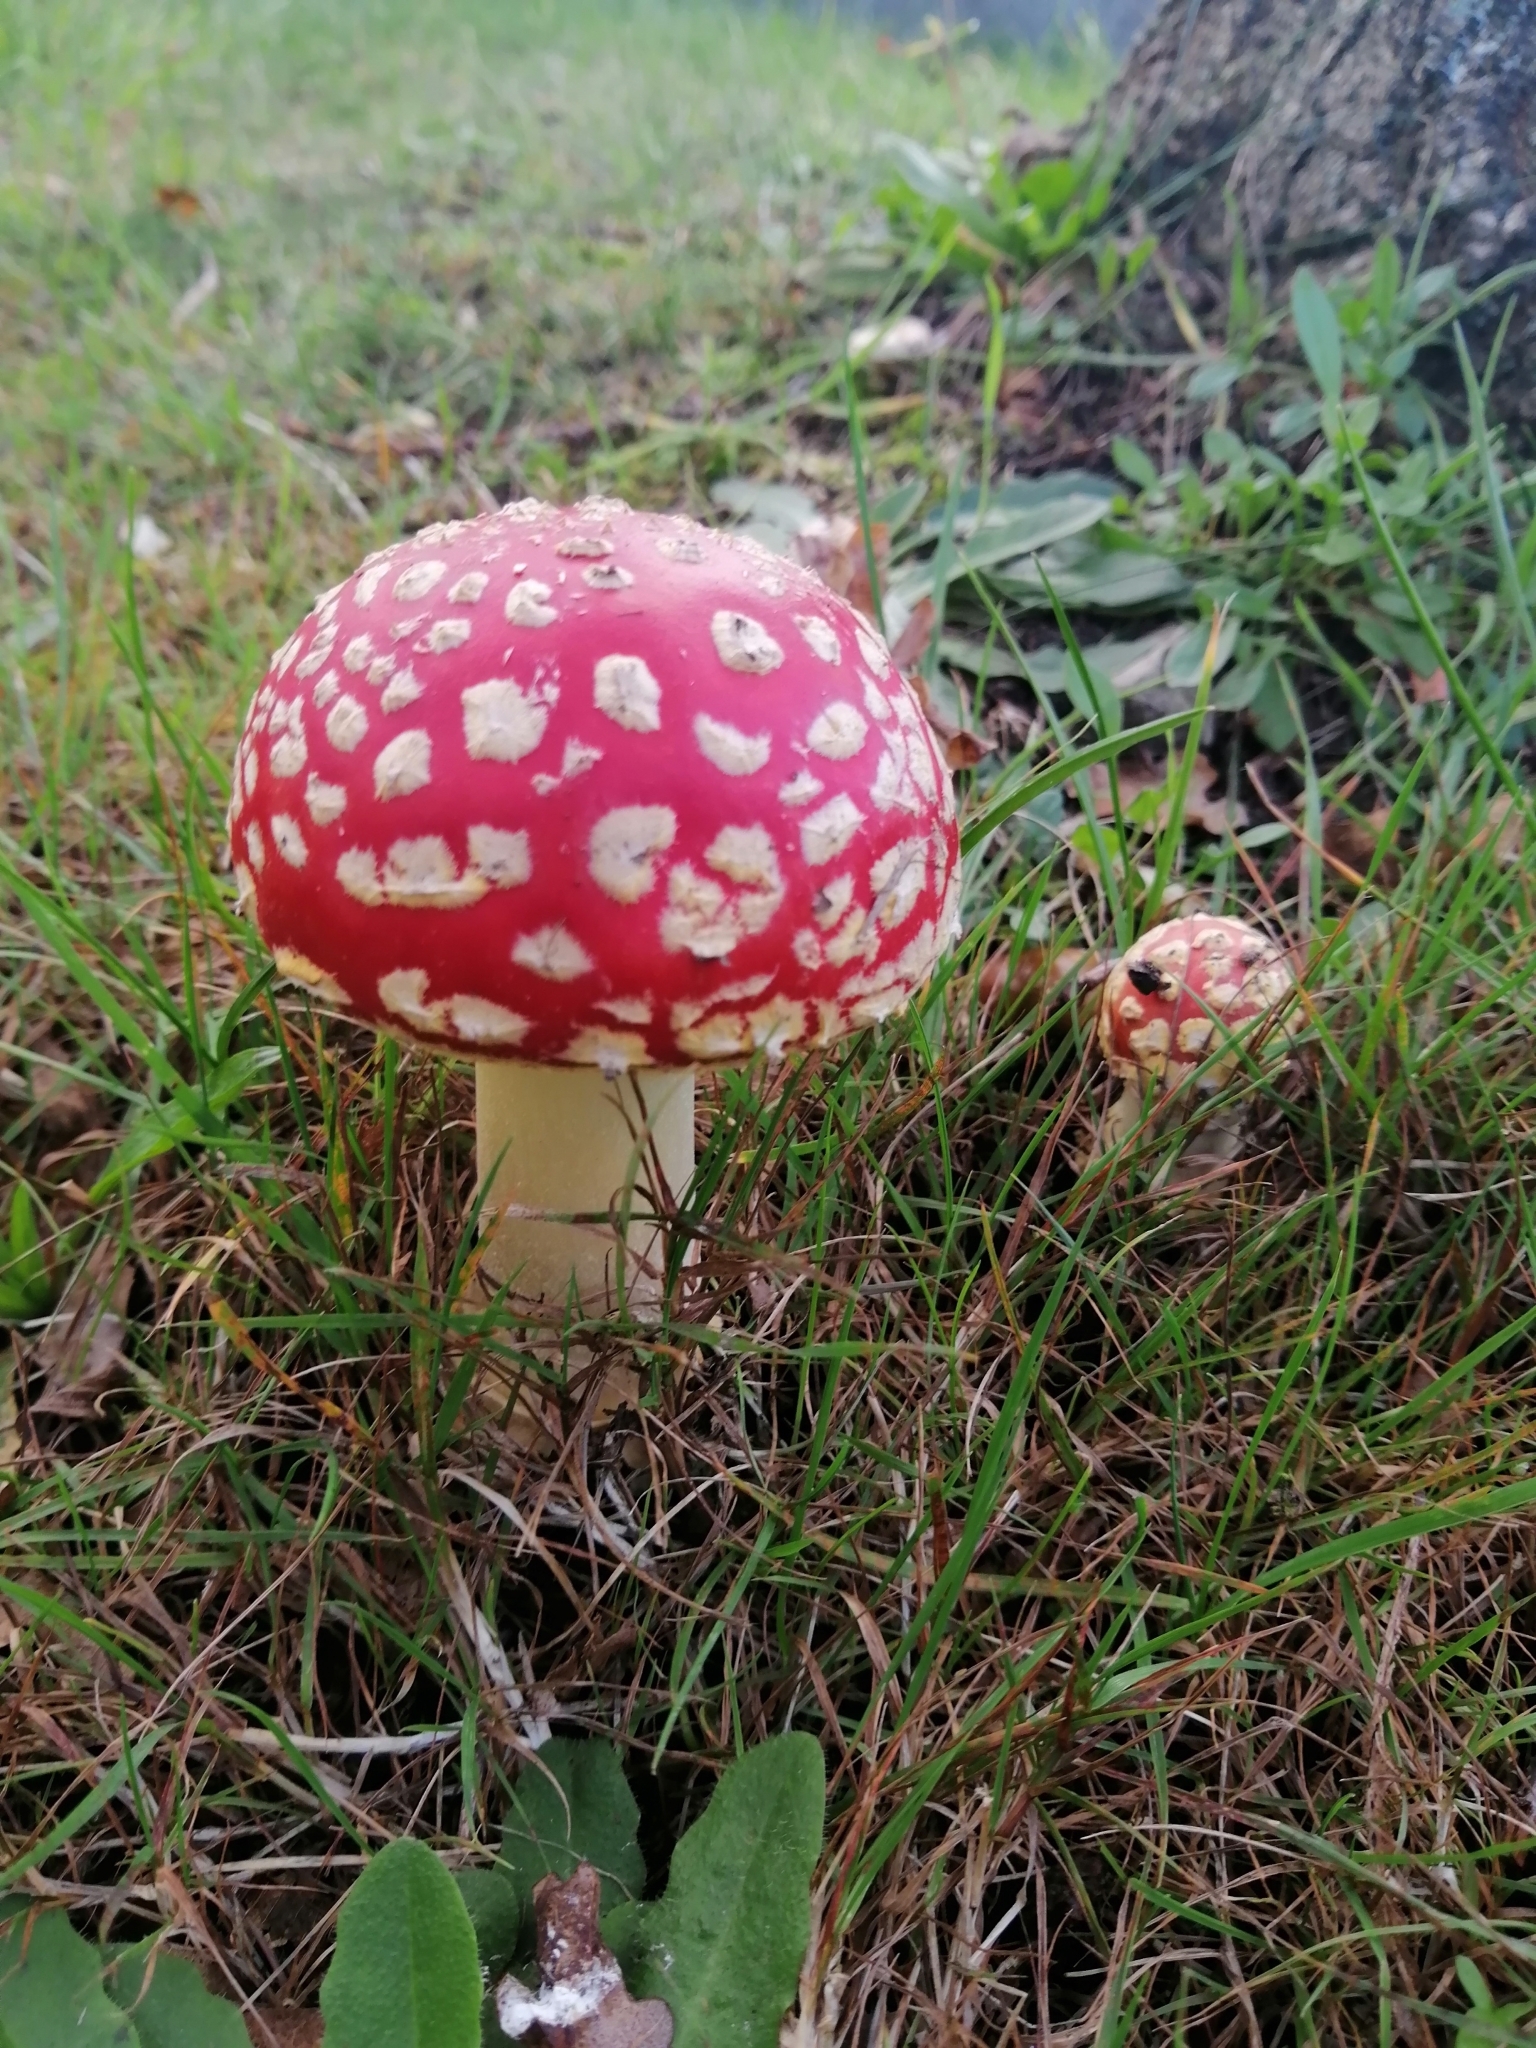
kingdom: Fungi
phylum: Basidiomycota
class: Agaricomycetes
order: Agaricales
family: Amanitaceae
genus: Amanita
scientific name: Amanita muscaria
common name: Fly agaric
